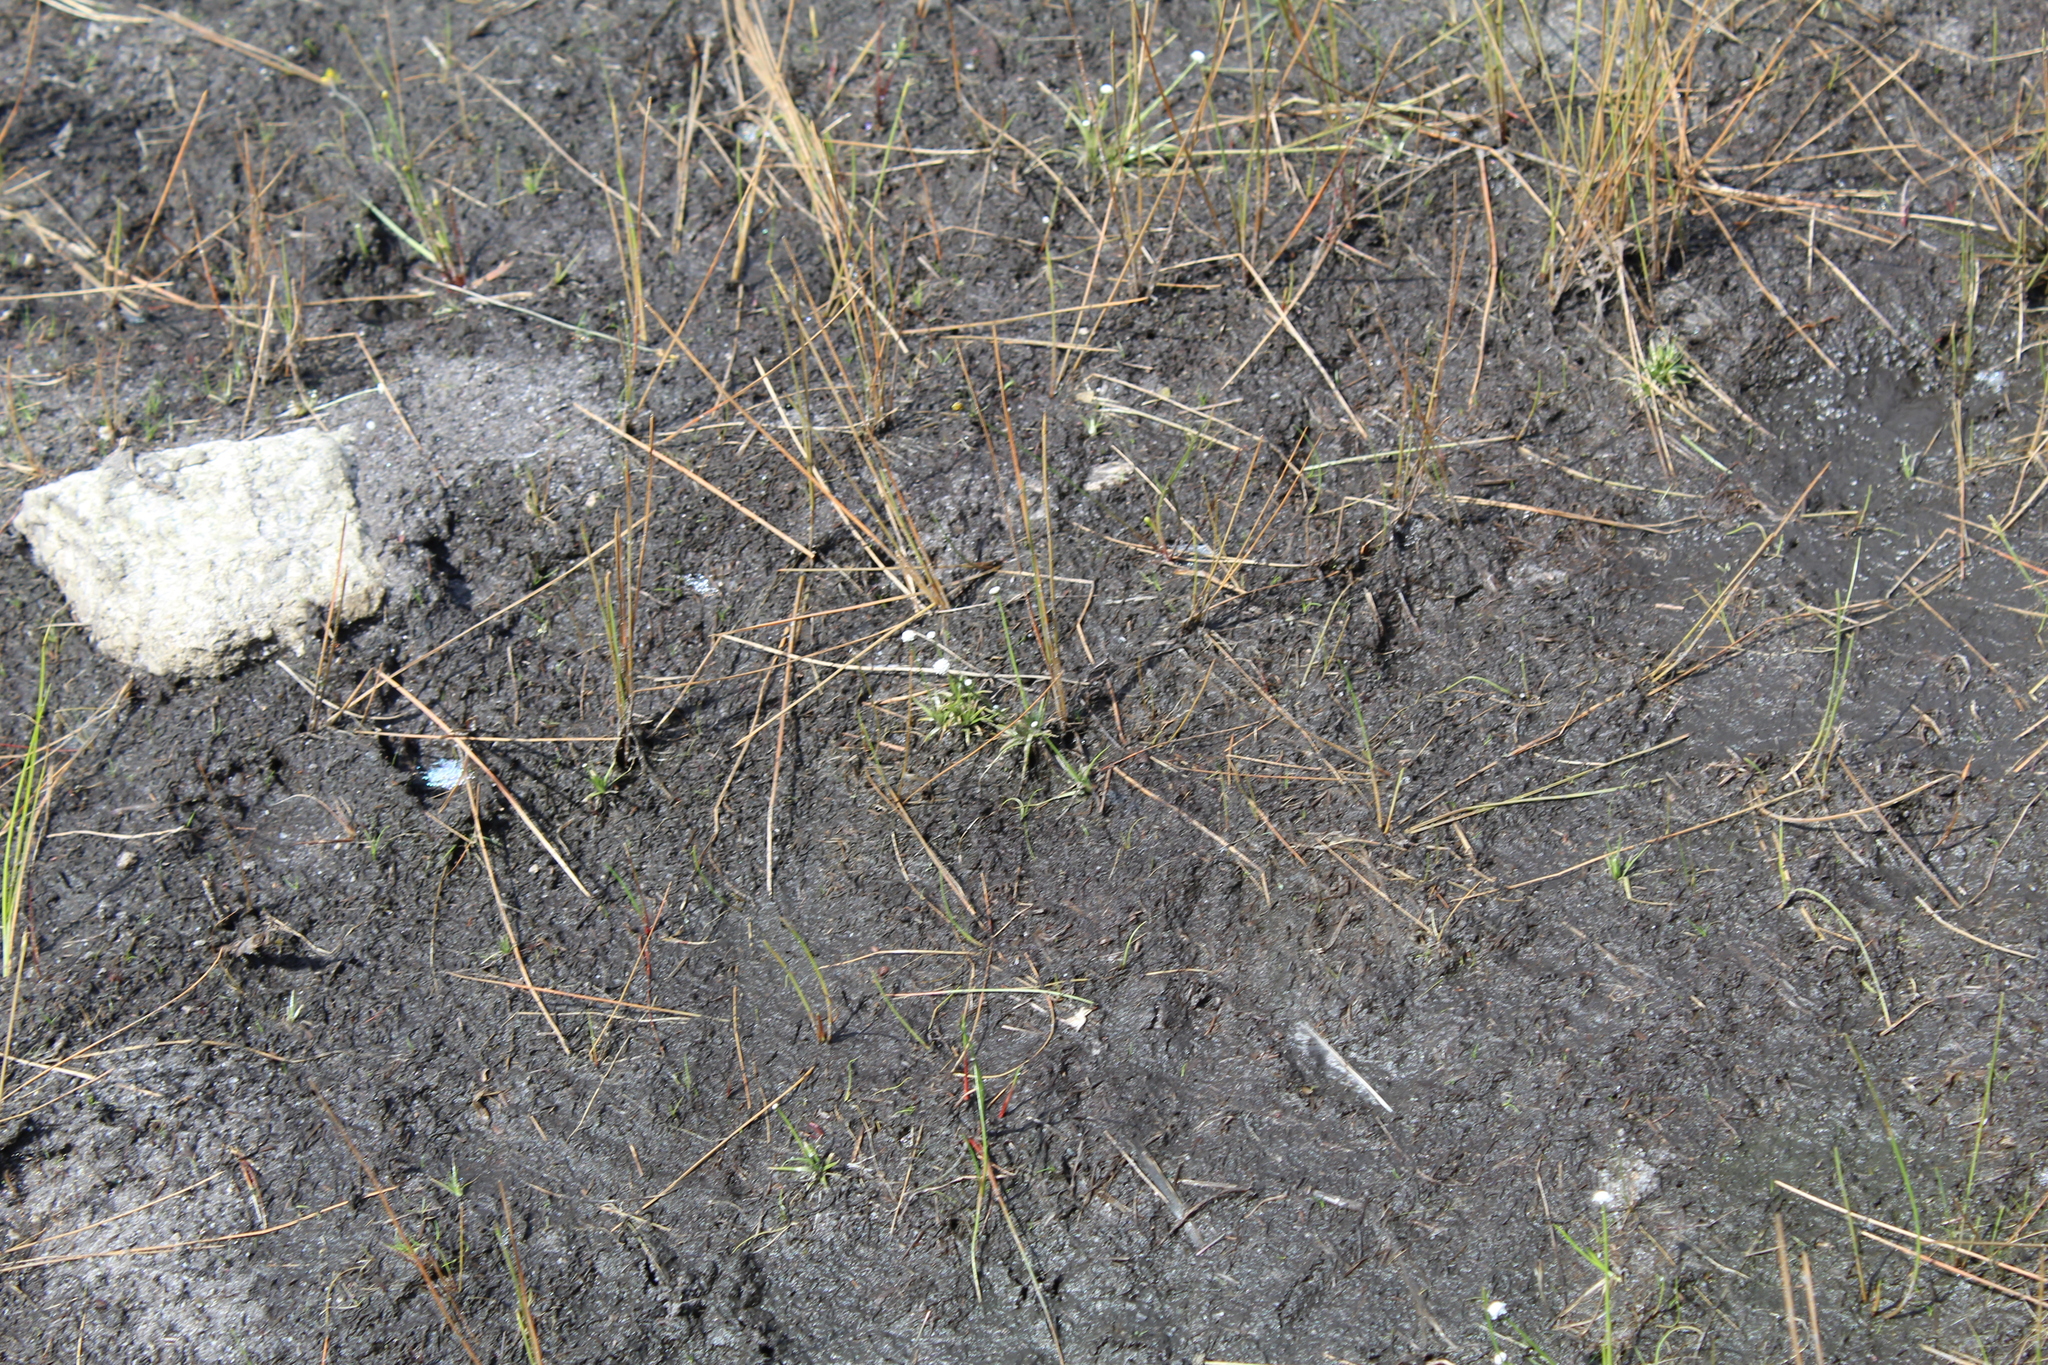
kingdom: Plantae
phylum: Tracheophyta
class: Liliopsida
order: Poales
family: Eriocaulaceae
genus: Eriocaulon
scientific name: Eriocaulon aquaticum
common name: Pipewort
